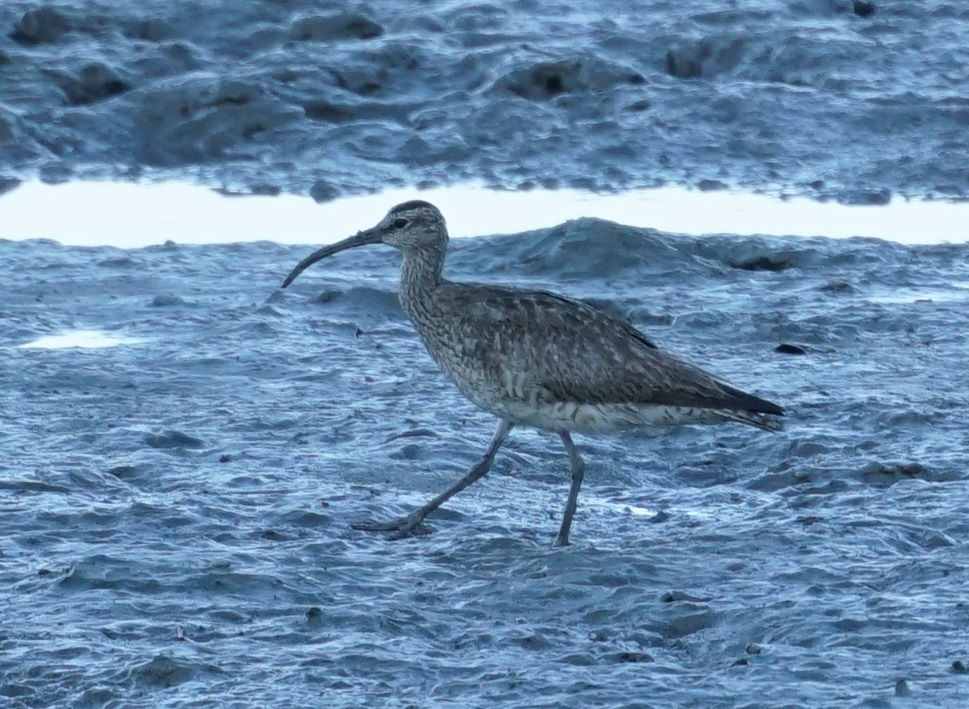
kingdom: Animalia
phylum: Chordata
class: Aves
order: Charadriiformes
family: Scolopacidae
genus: Numenius
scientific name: Numenius phaeopus
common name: Whimbrel
